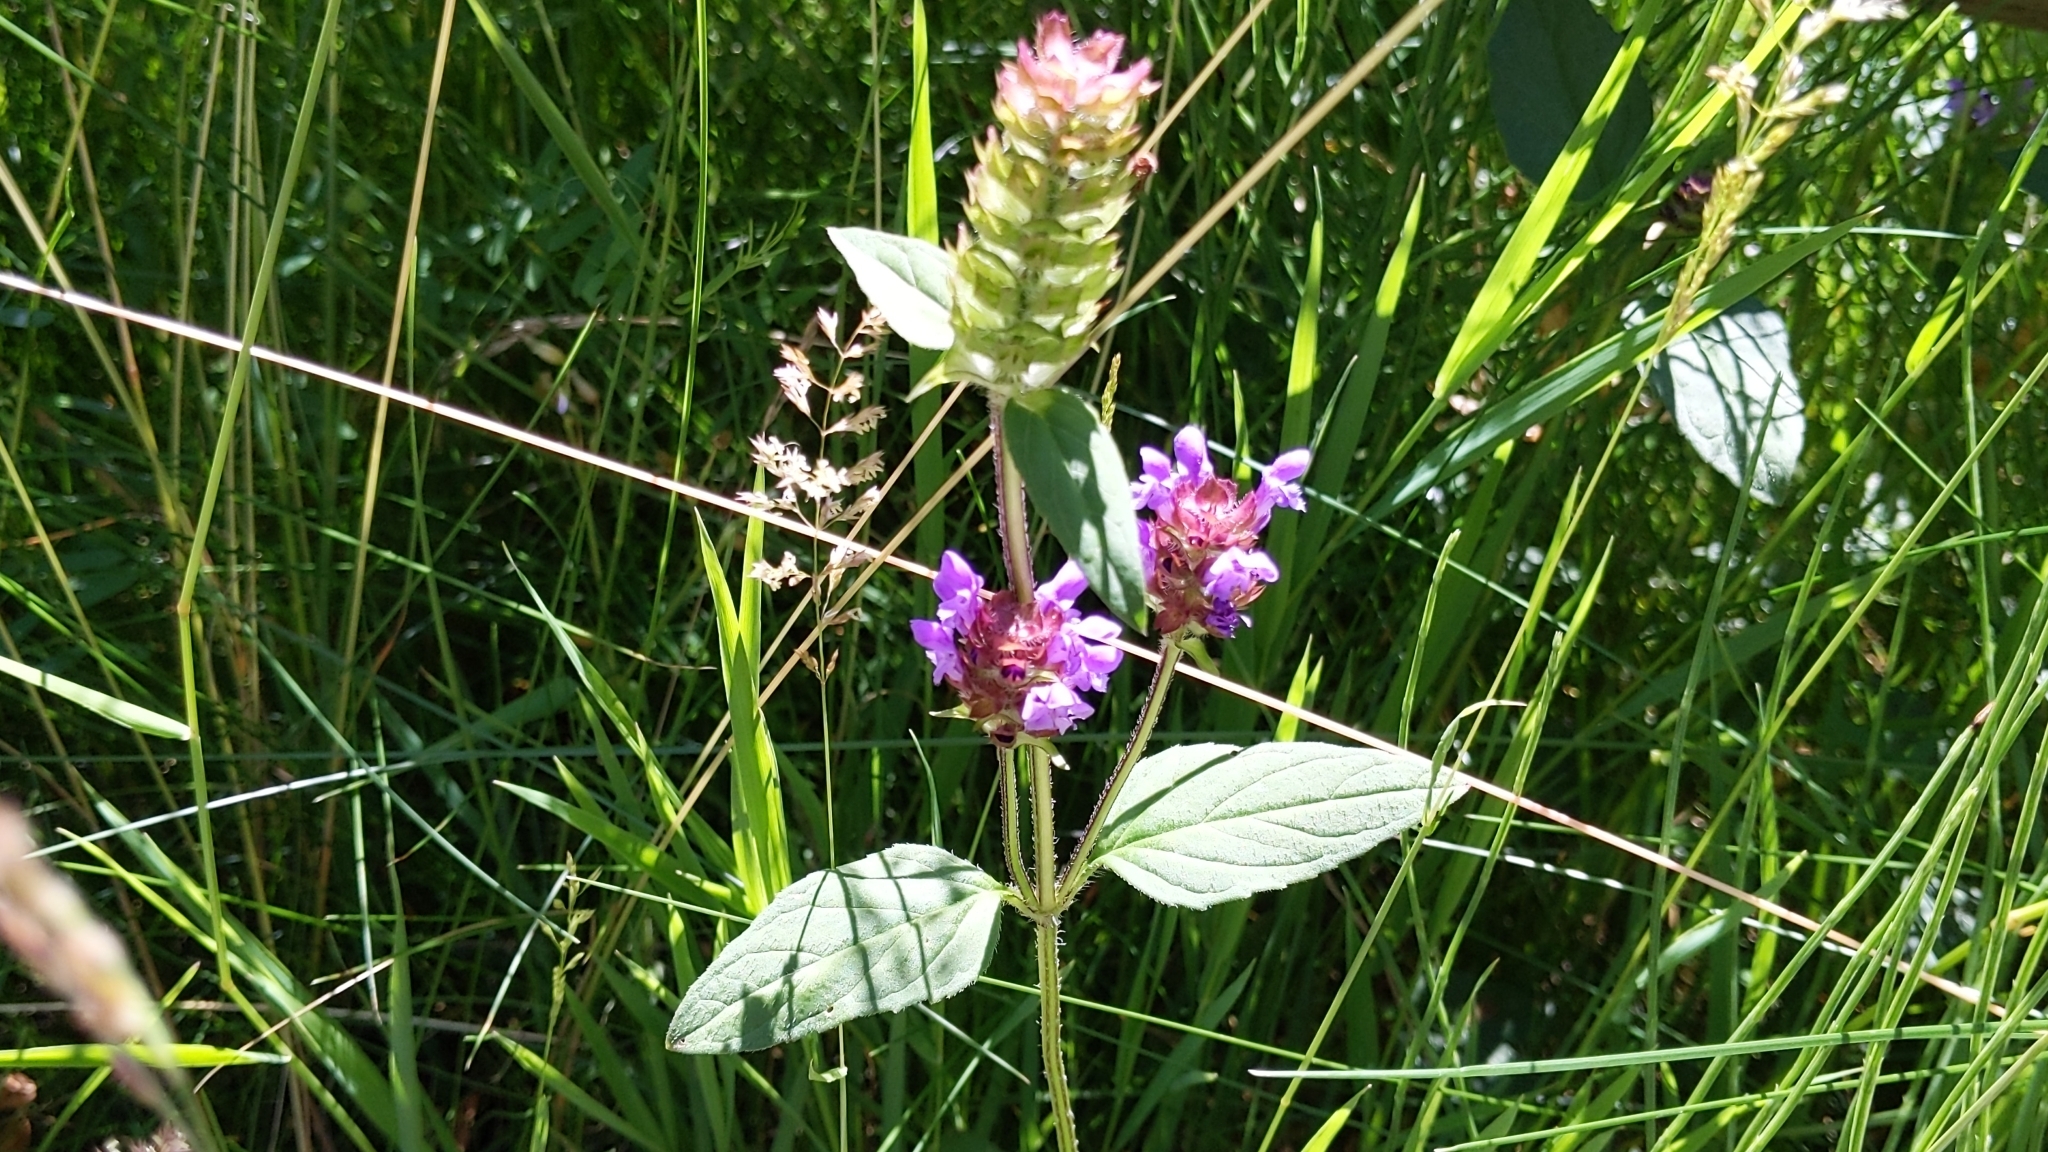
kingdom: Plantae
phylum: Tracheophyta
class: Magnoliopsida
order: Lamiales
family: Lamiaceae
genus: Prunella
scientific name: Prunella vulgaris
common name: Heal-all
